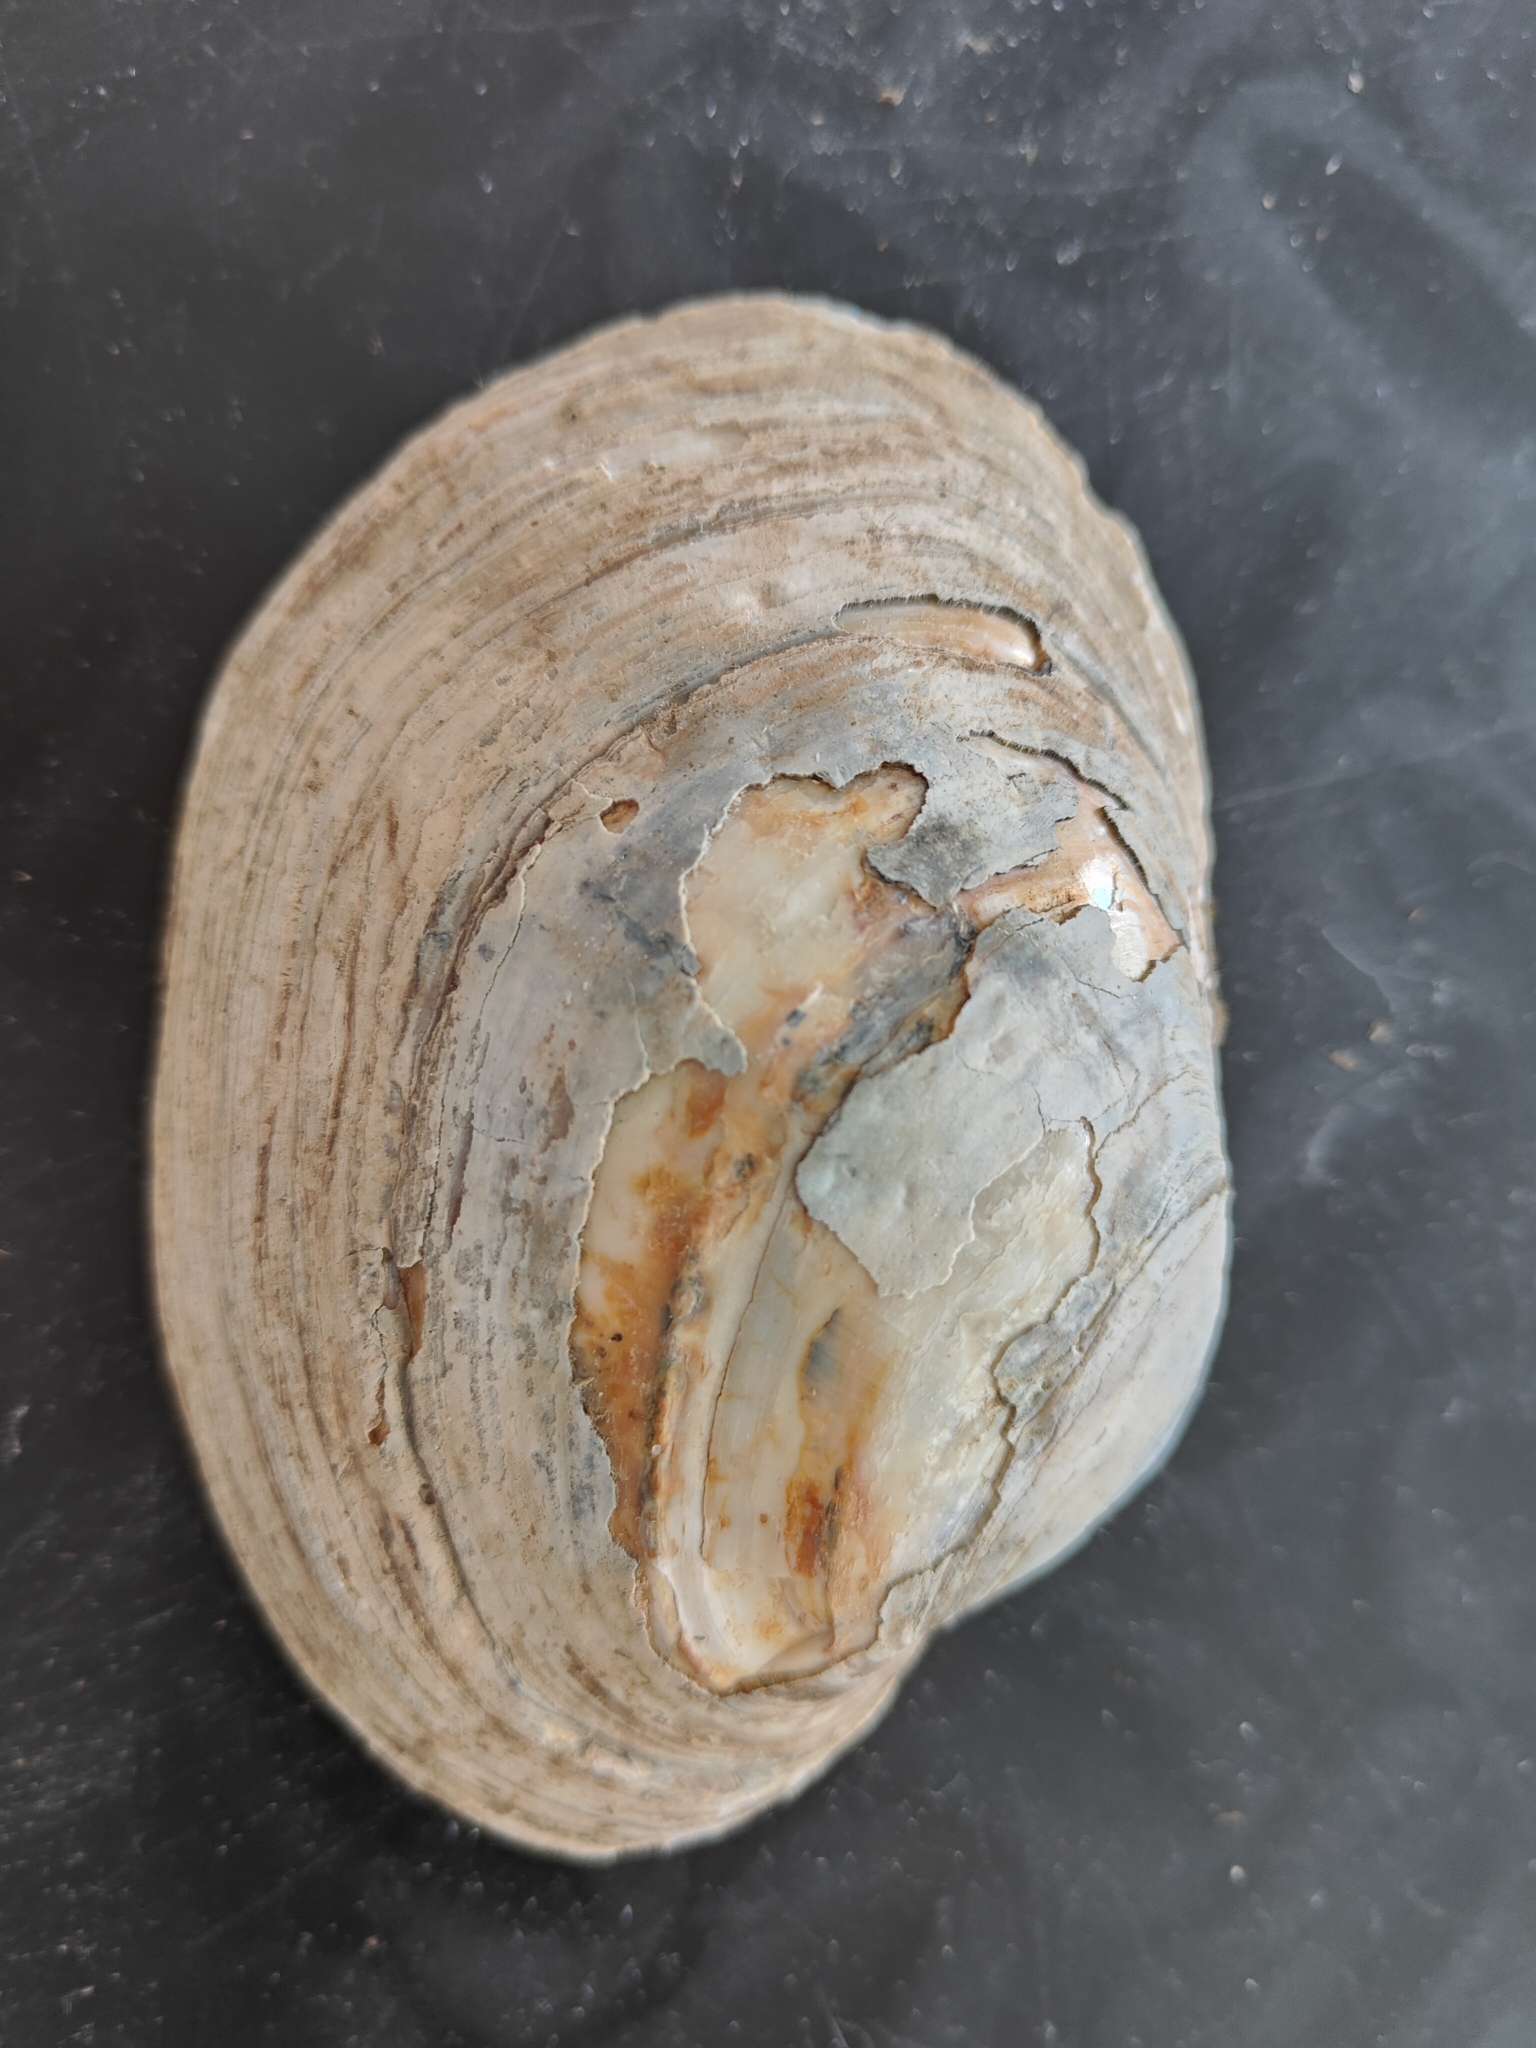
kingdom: Animalia
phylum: Mollusca
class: Bivalvia
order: Unionida
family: Unionidae
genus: Lampsilis
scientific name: Lampsilis cardium
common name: Plain pocketbook
